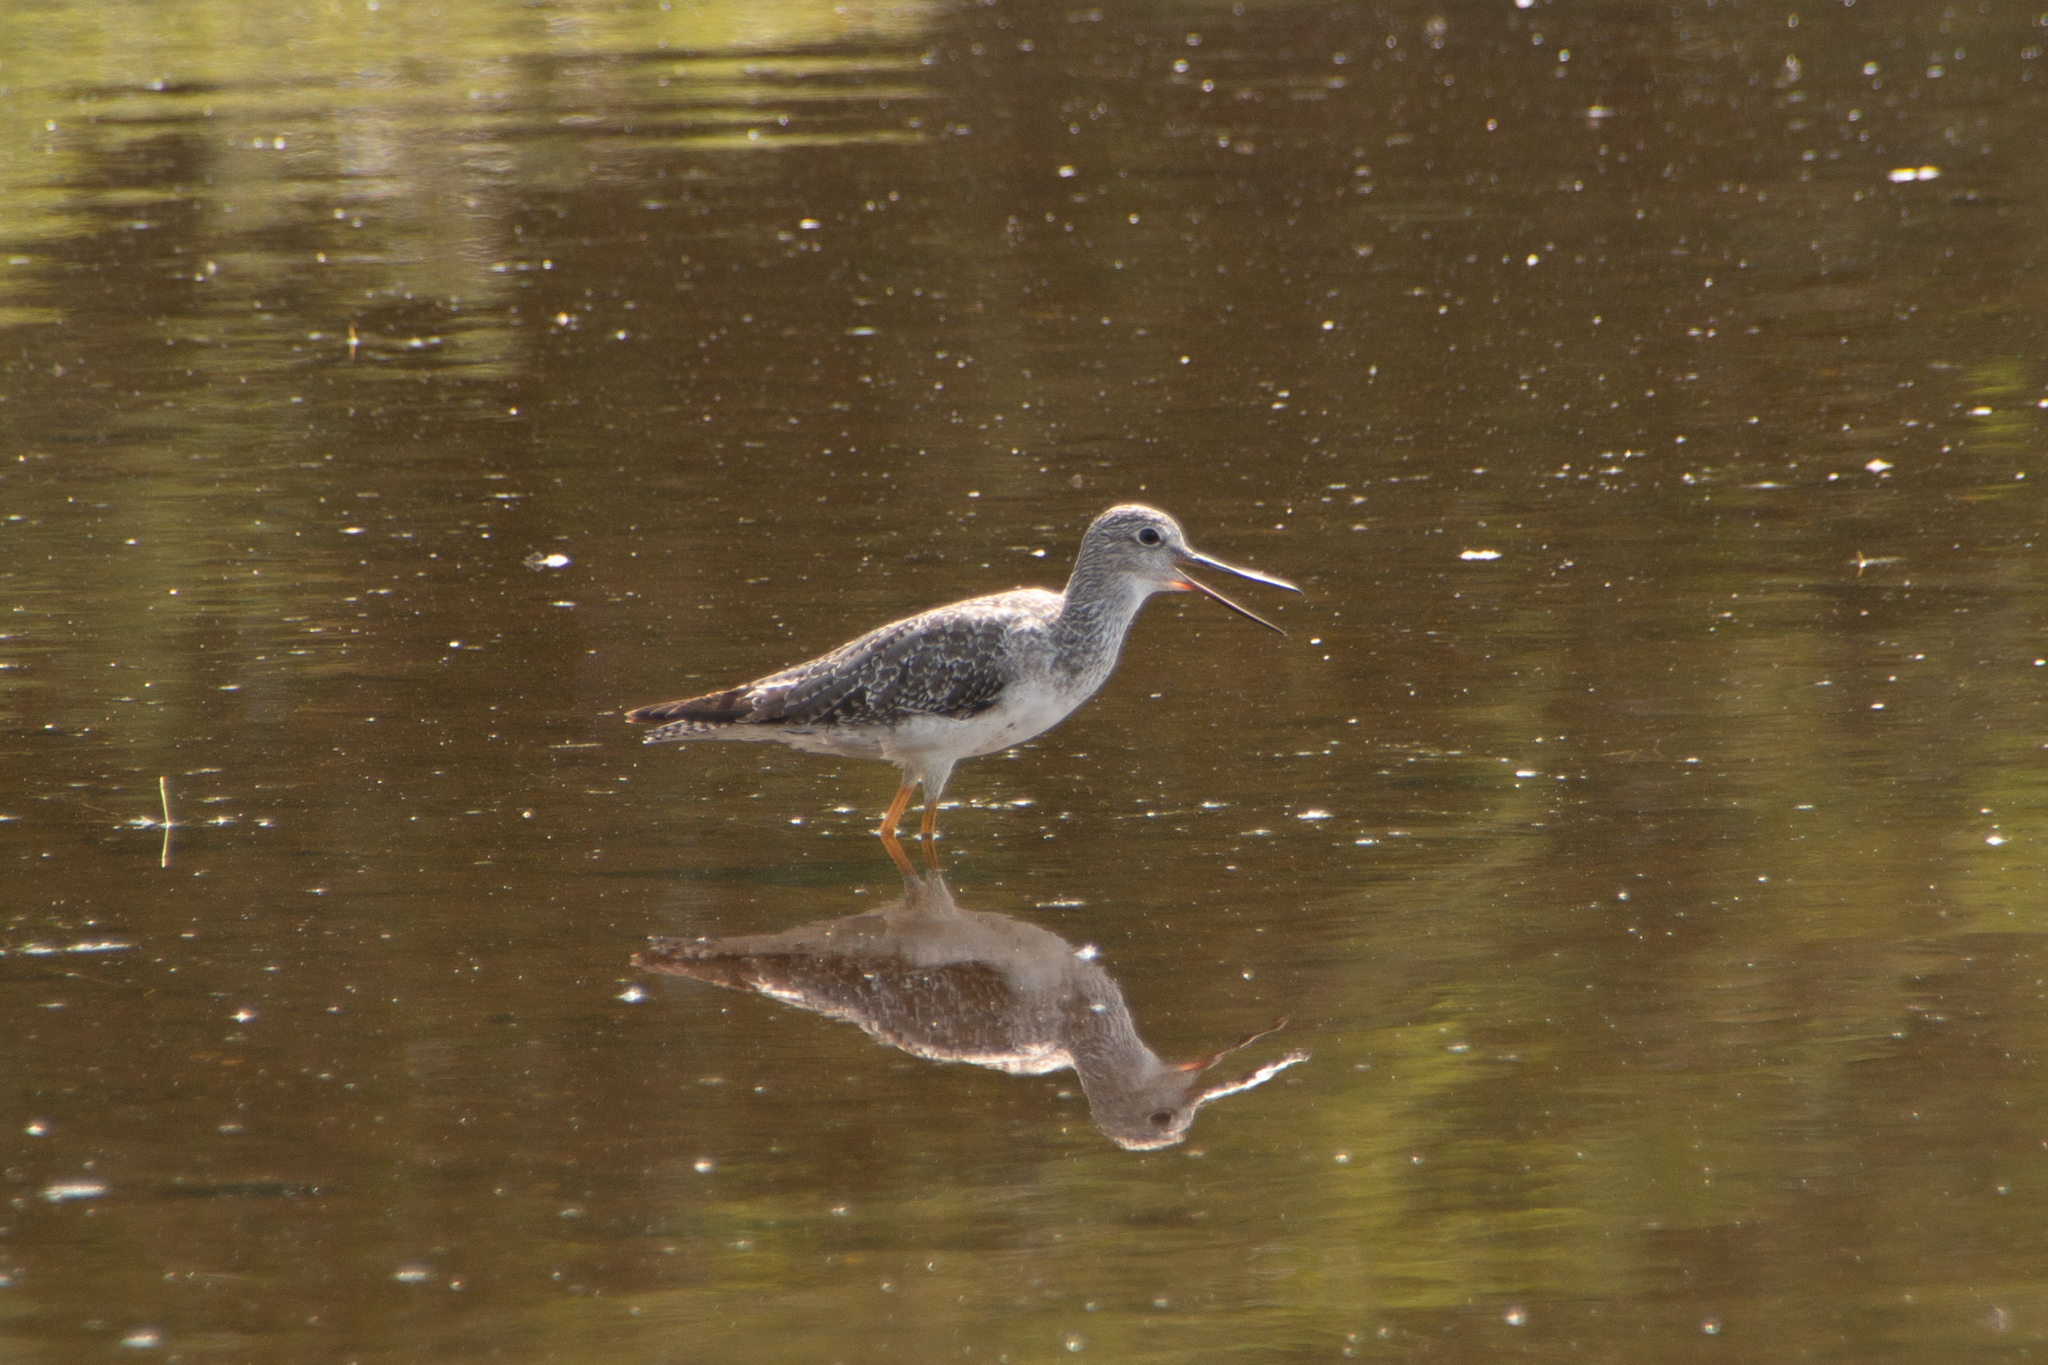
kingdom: Animalia
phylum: Chordata
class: Aves
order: Charadriiformes
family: Scolopacidae
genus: Tringa
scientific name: Tringa melanoleuca
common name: Greater yellowlegs
